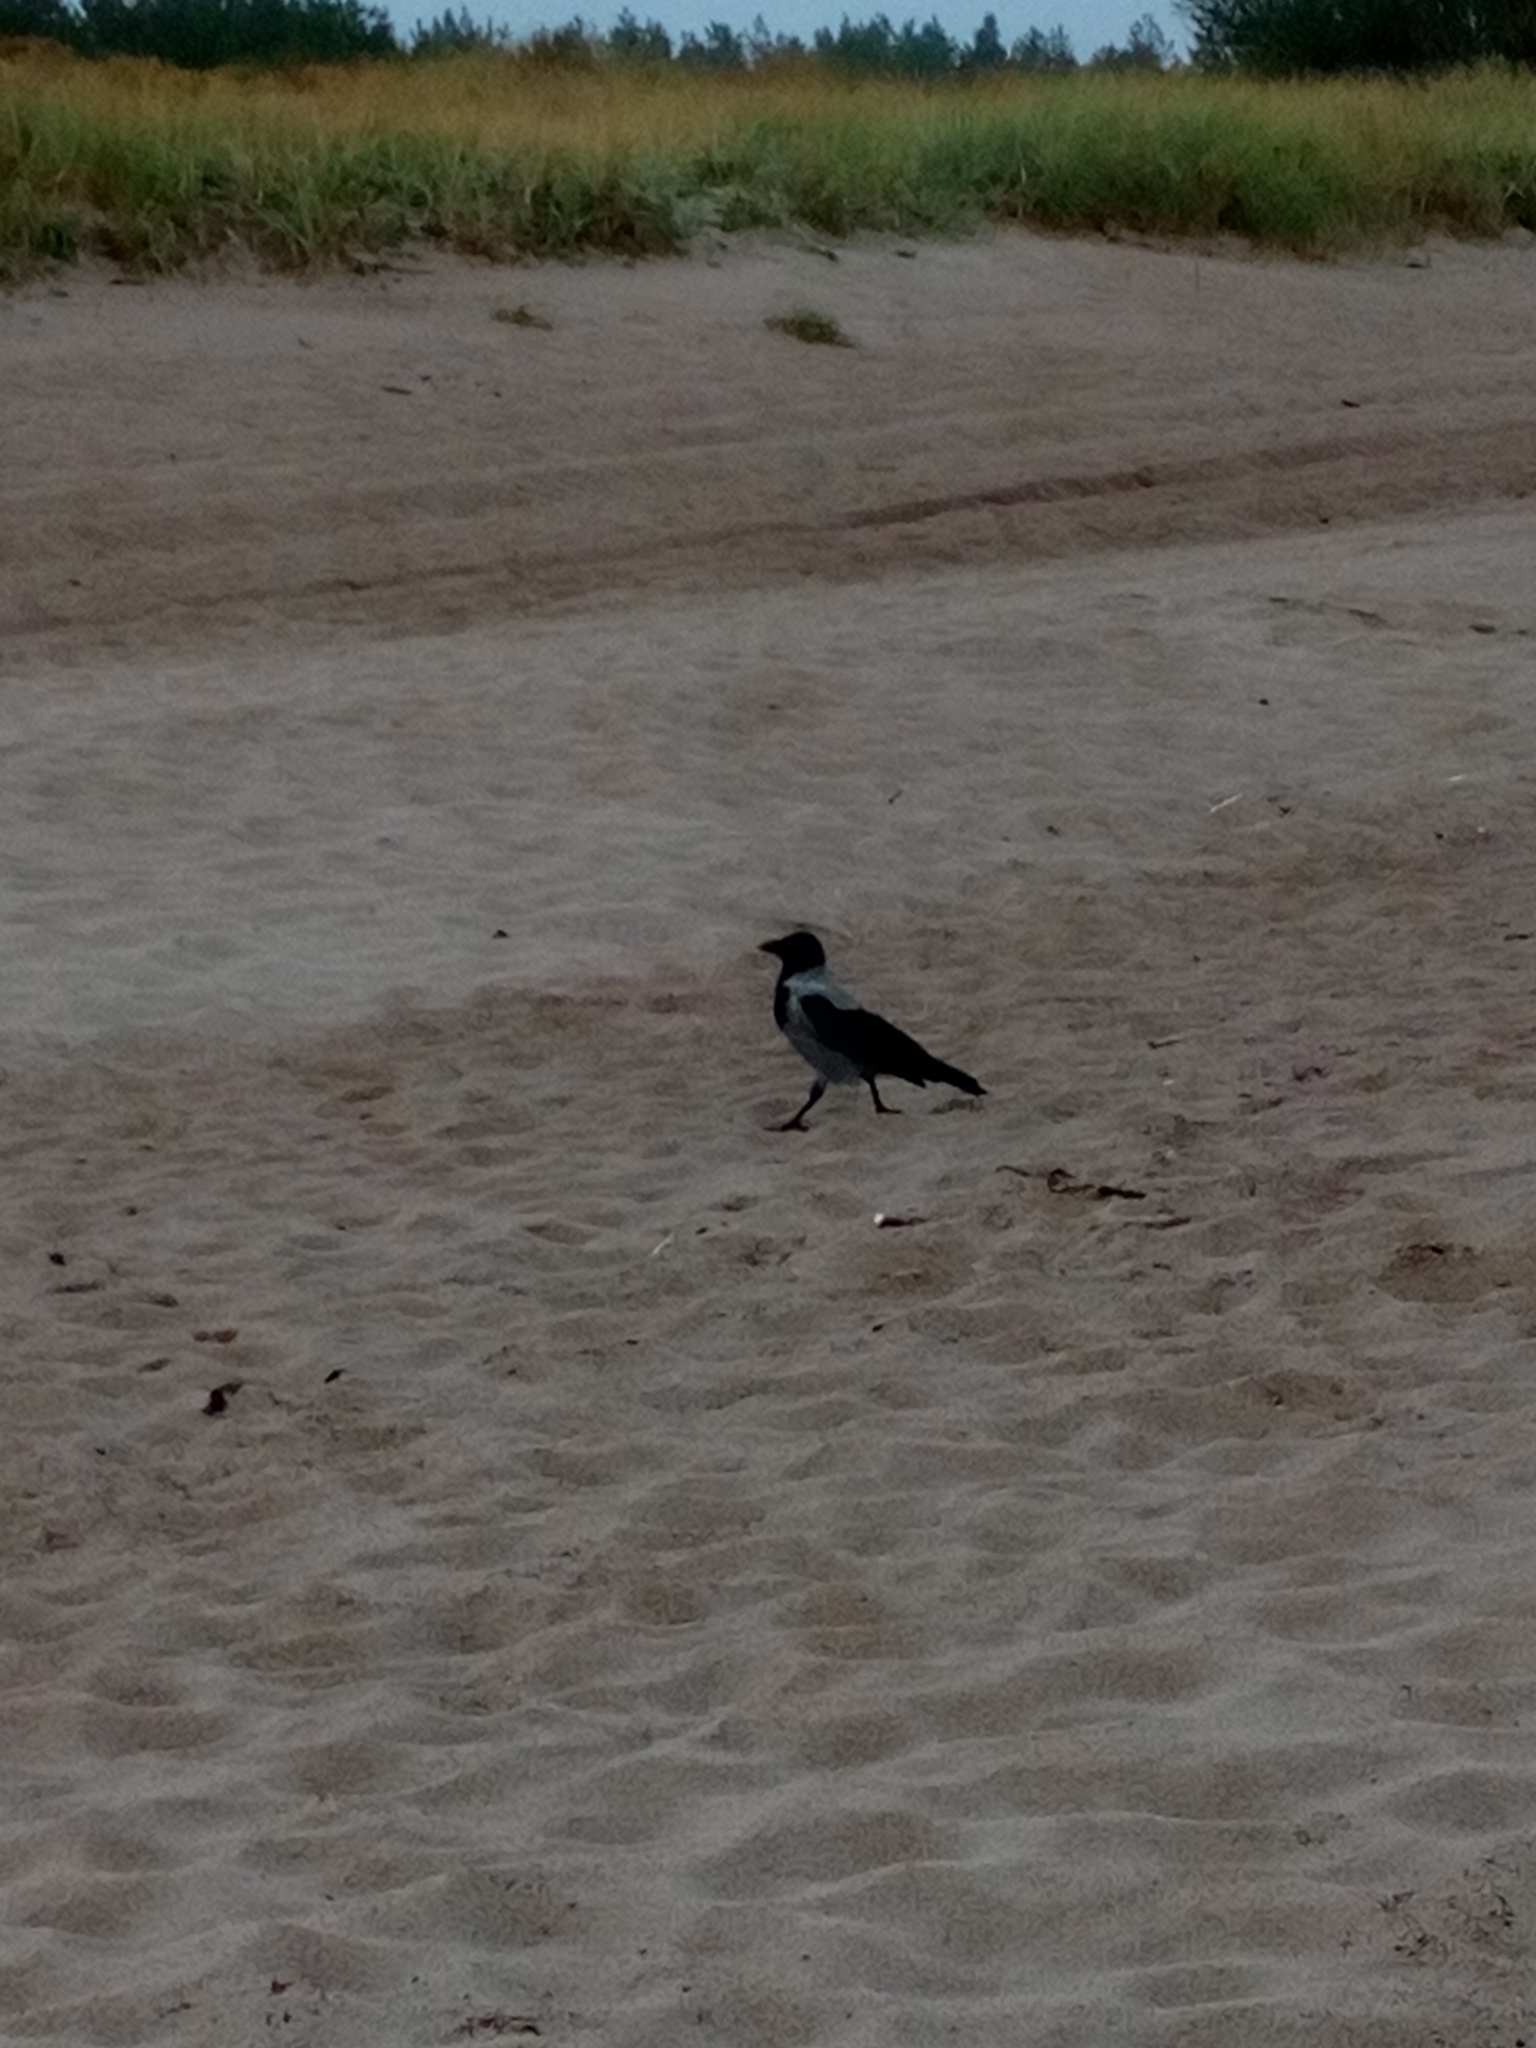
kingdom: Animalia
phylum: Chordata
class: Aves
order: Passeriformes
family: Corvidae
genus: Corvus
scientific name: Corvus cornix
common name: Hooded crow
